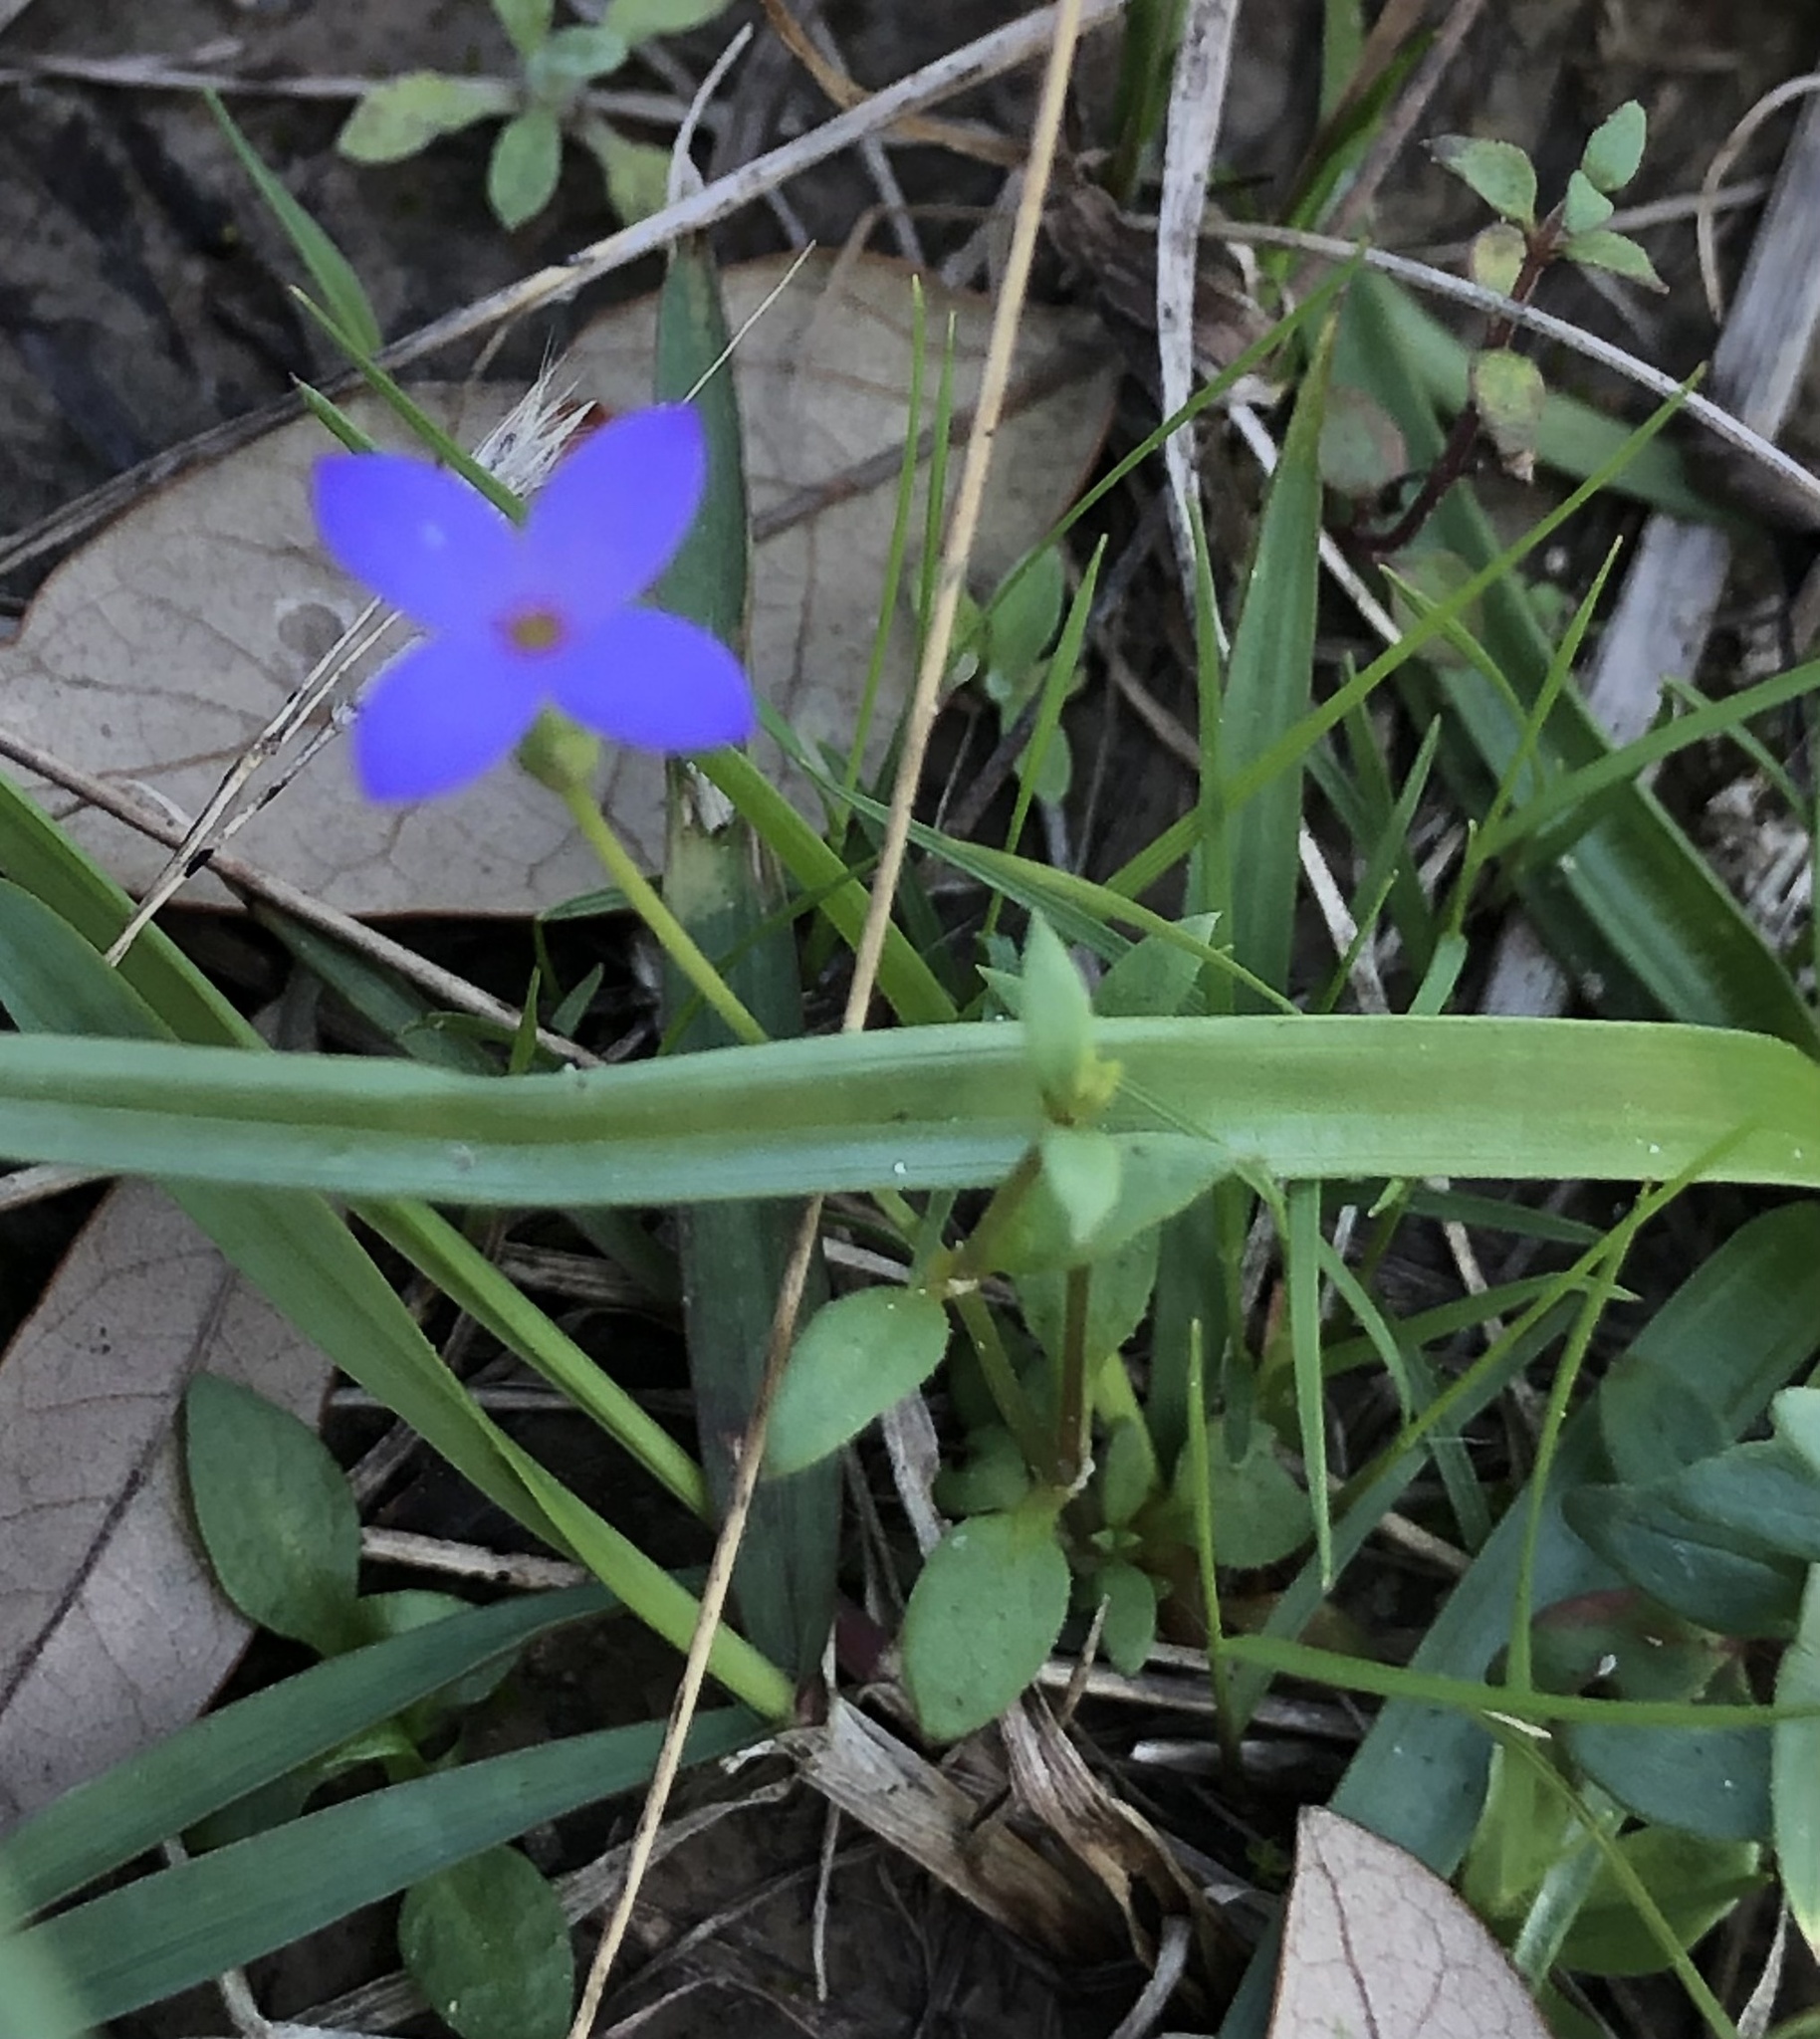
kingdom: Plantae
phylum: Tracheophyta
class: Magnoliopsida
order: Gentianales
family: Rubiaceae
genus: Houstonia
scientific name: Houstonia pusilla
